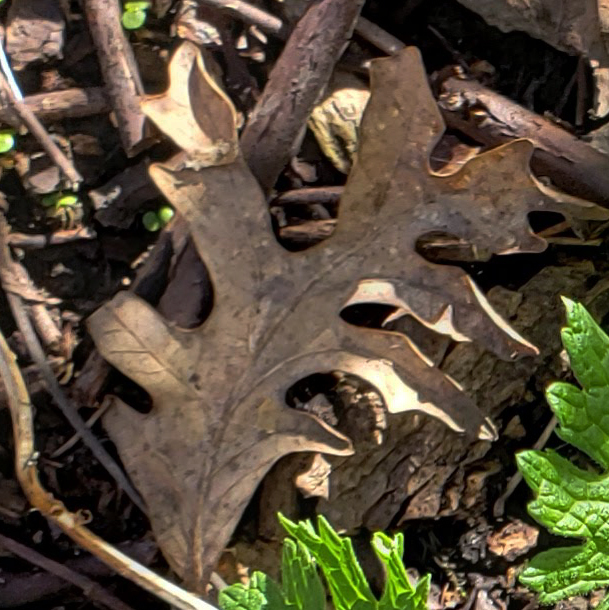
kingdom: Plantae
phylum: Tracheophyta
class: Magnoliopsida
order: Fagales
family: Fagaceae
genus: Quercus
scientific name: Quercus alba
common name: White oak
